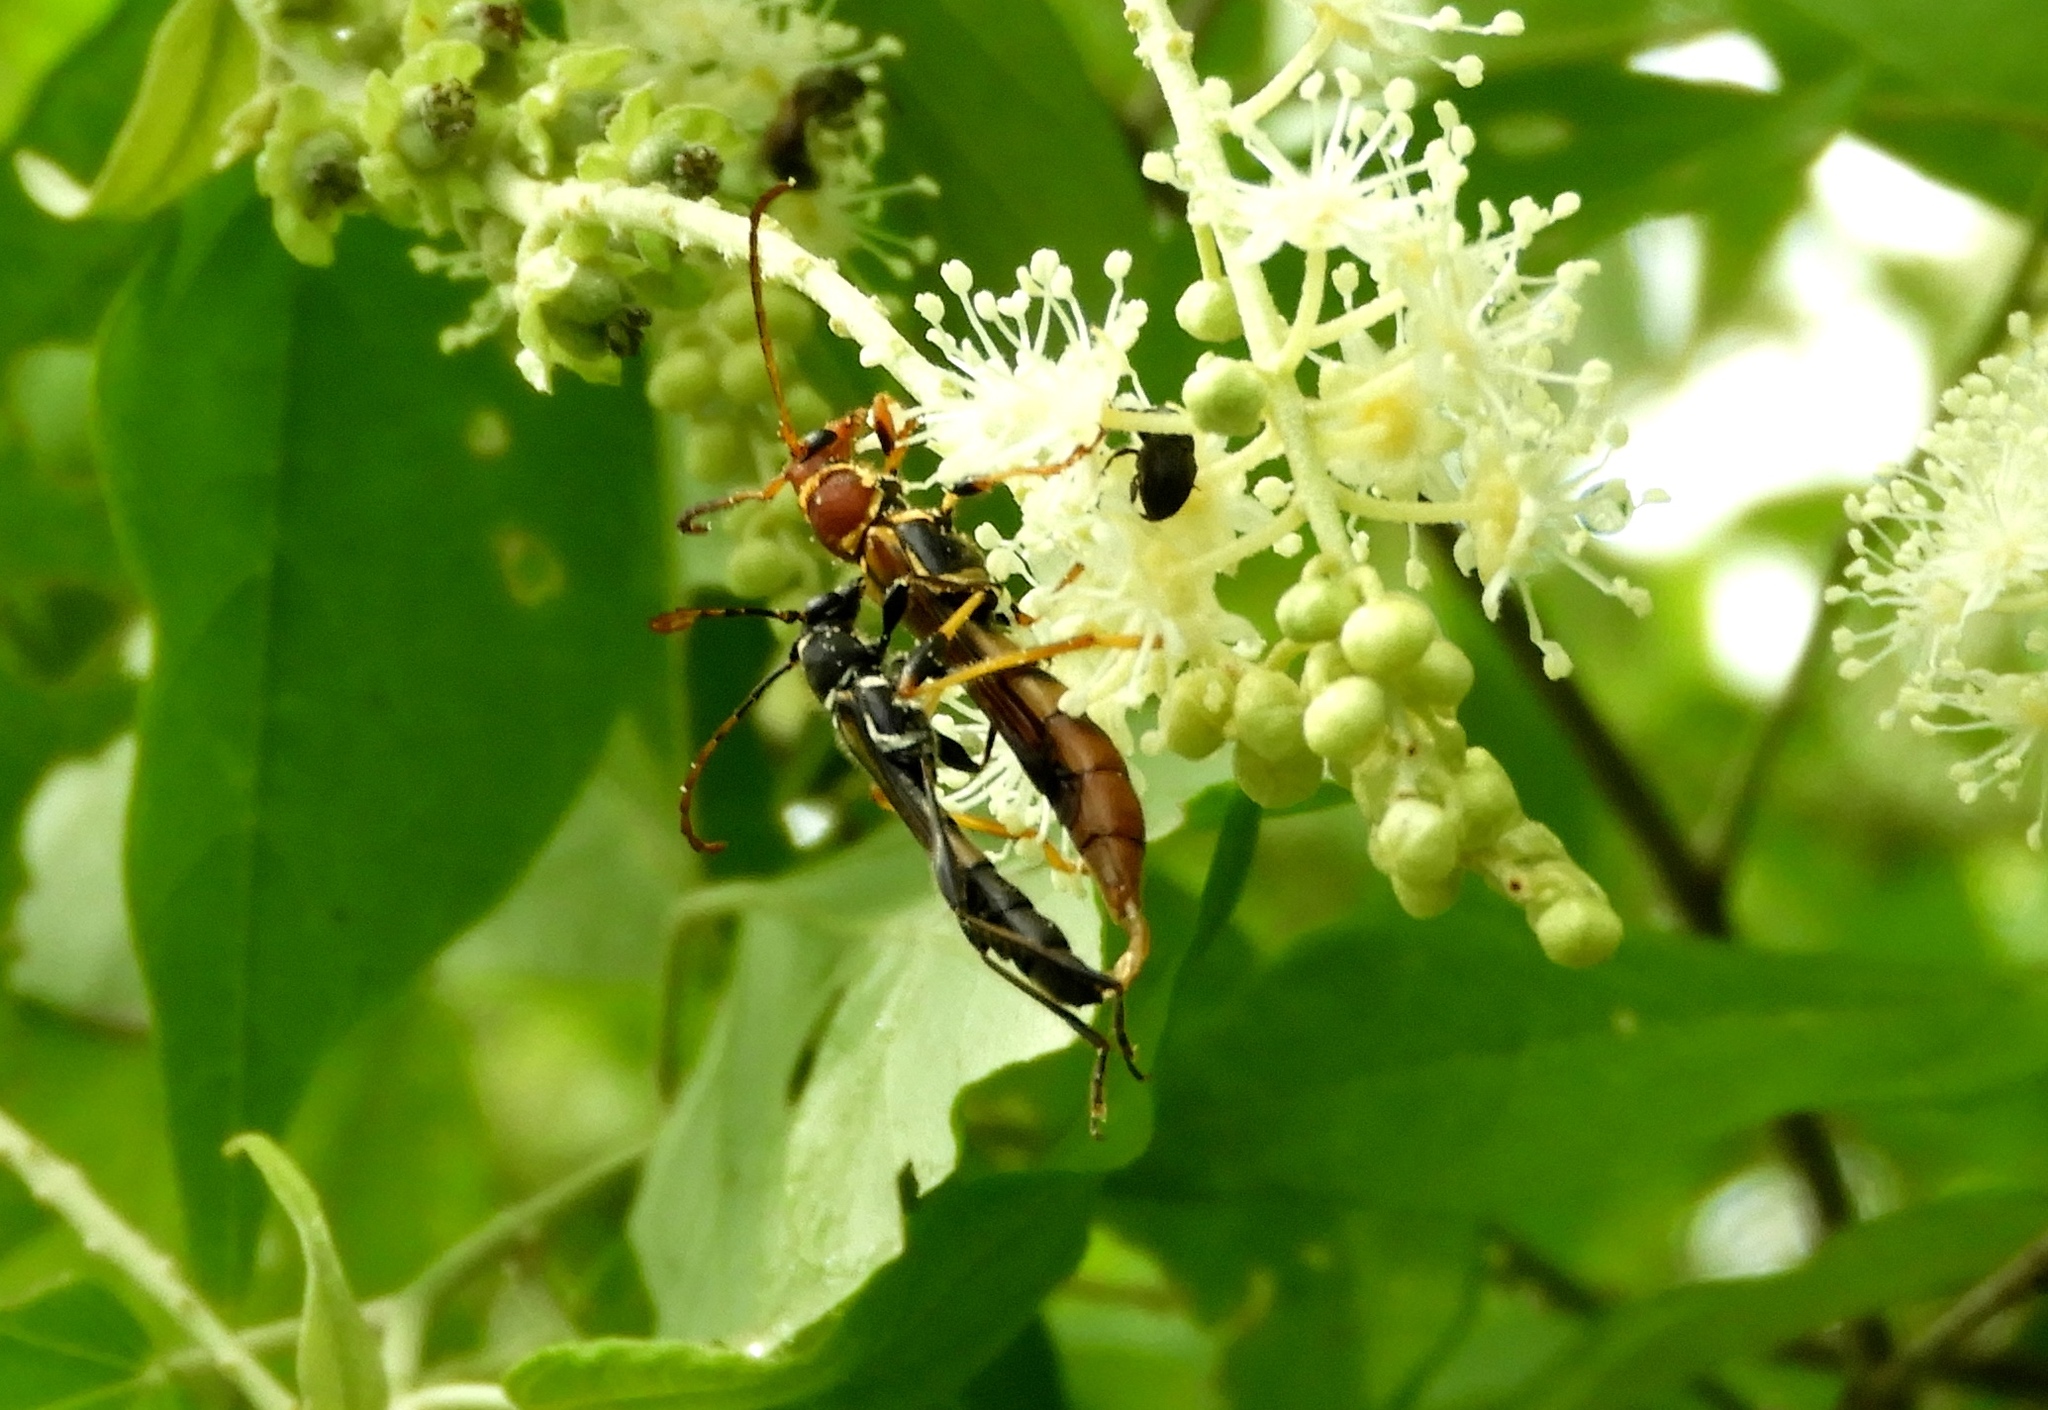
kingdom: Animalia
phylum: Arthropoda
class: Insecta
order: Coleoptera
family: Cerambycidae
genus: Odontocera
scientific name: Odontocera aurocincta
